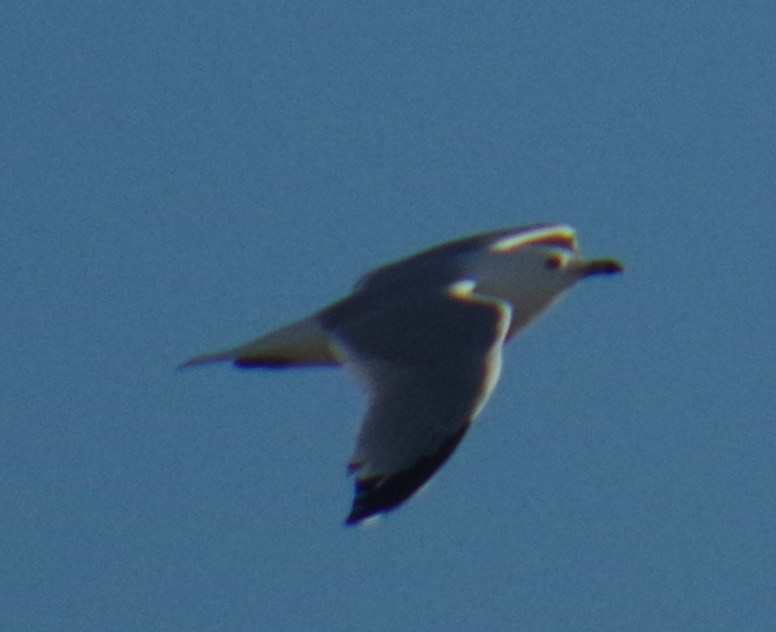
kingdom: Animalia
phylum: Chordata
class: Aves
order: Charadriiformes
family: Laridae
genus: Larus
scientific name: Larus delawarensis
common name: Ring-billed gull
